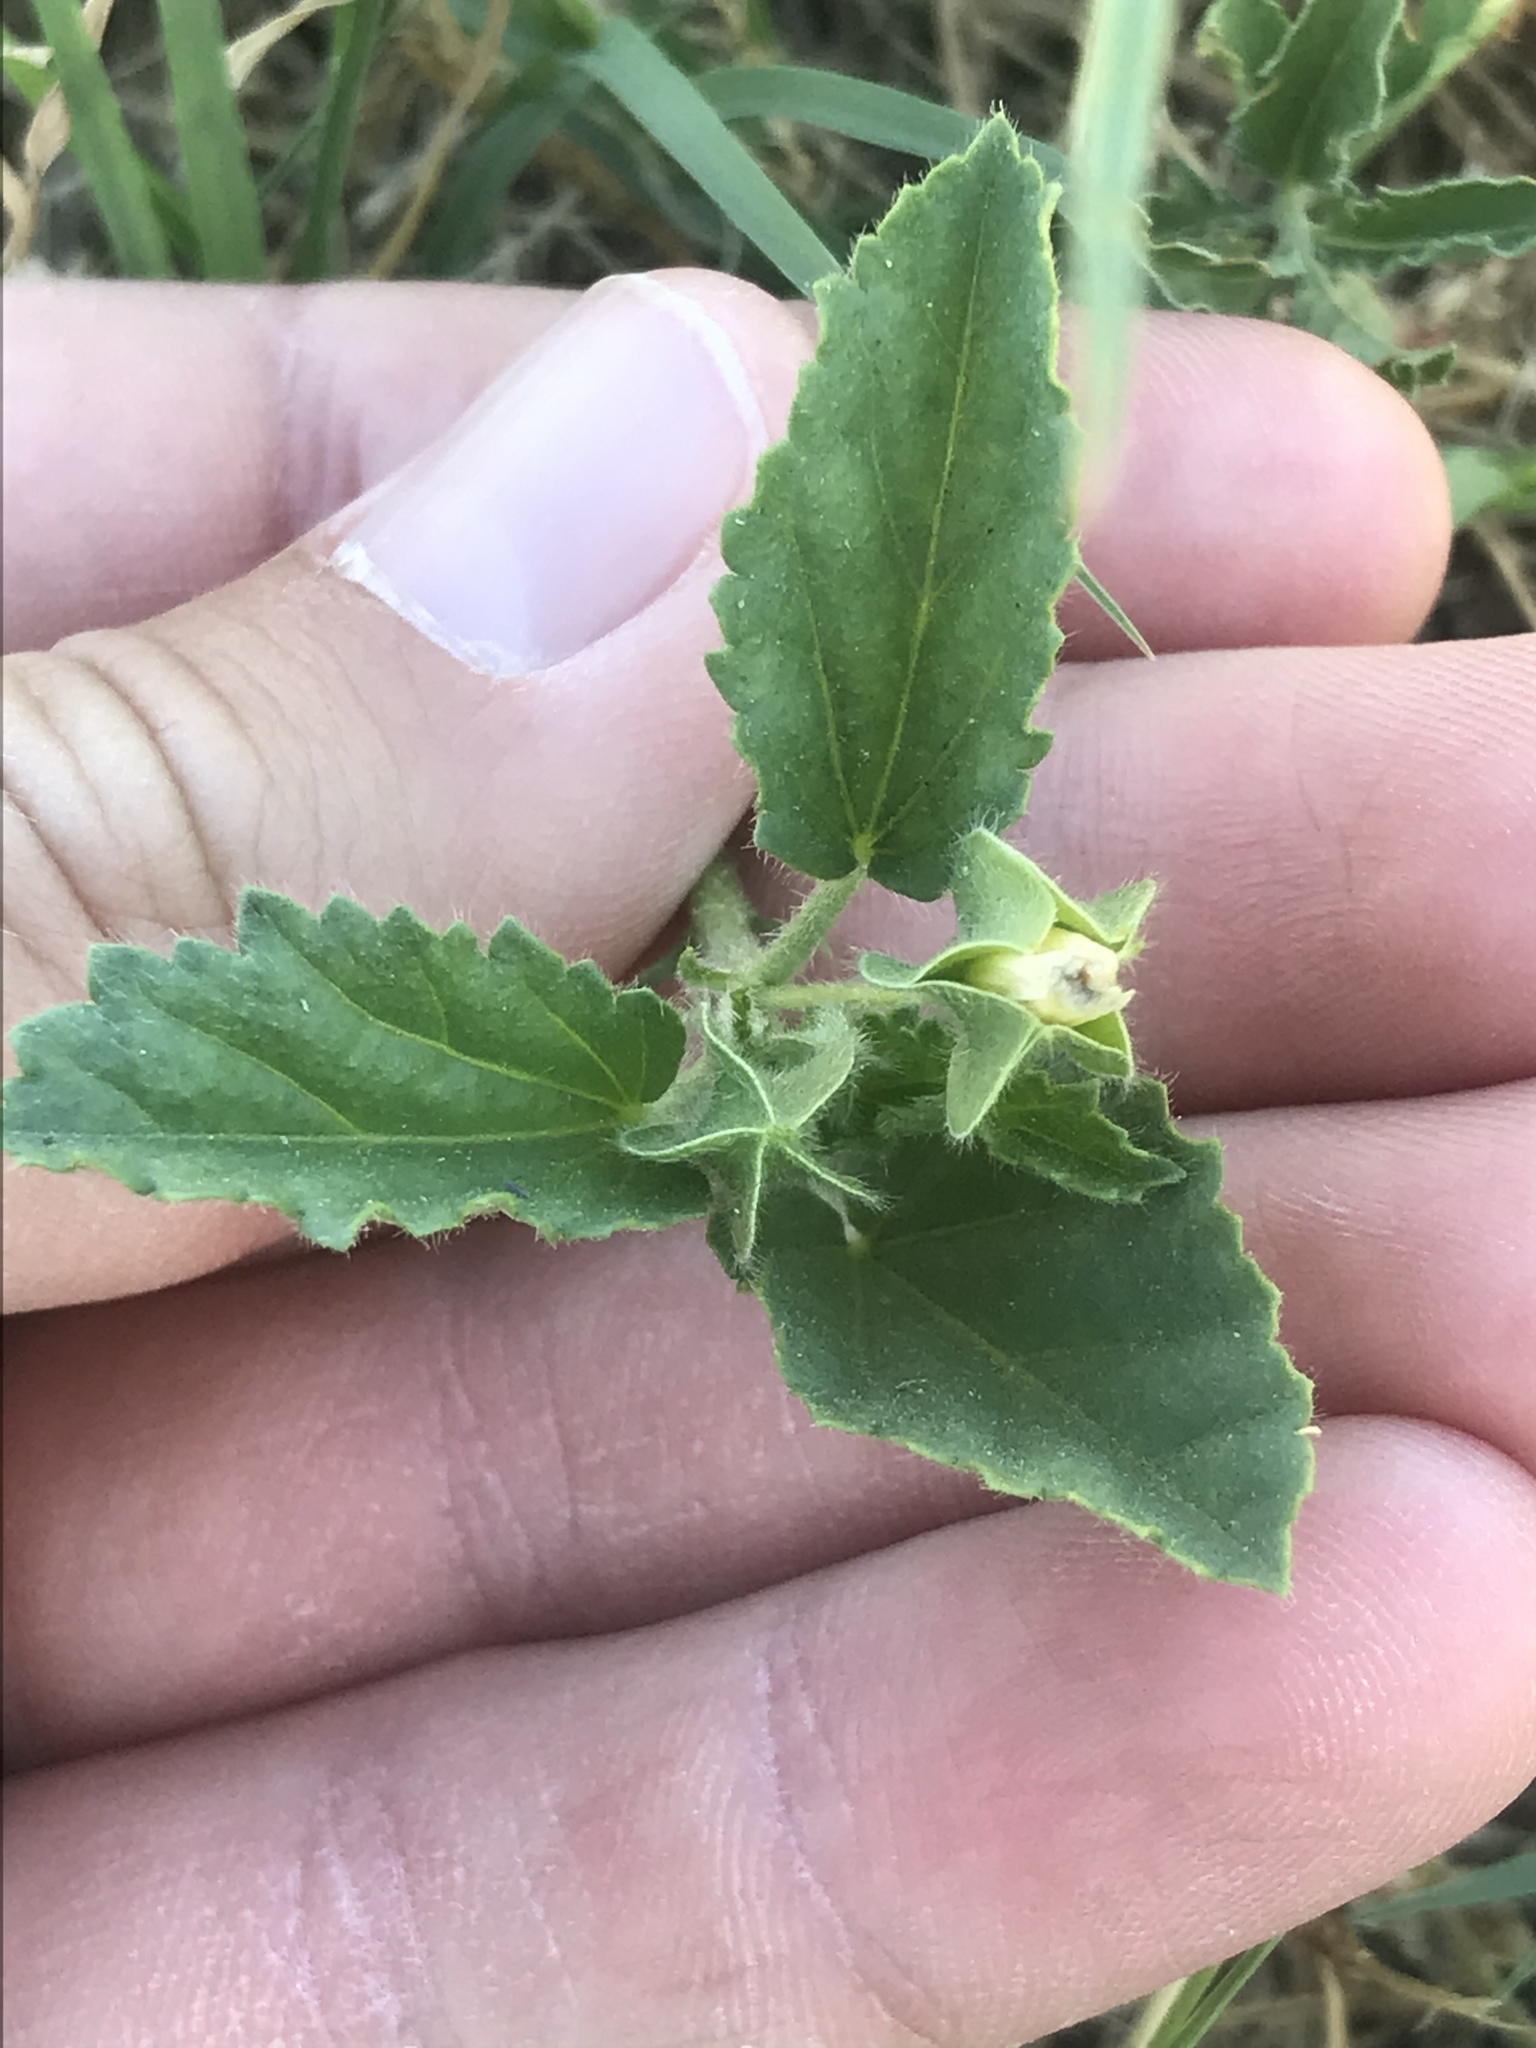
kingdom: Plantae
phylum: Tracheophyta
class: Magnoliopsida
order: Malvales
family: Malvaceae
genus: Rhynchosida
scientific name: Rhynchosida physocalyx
